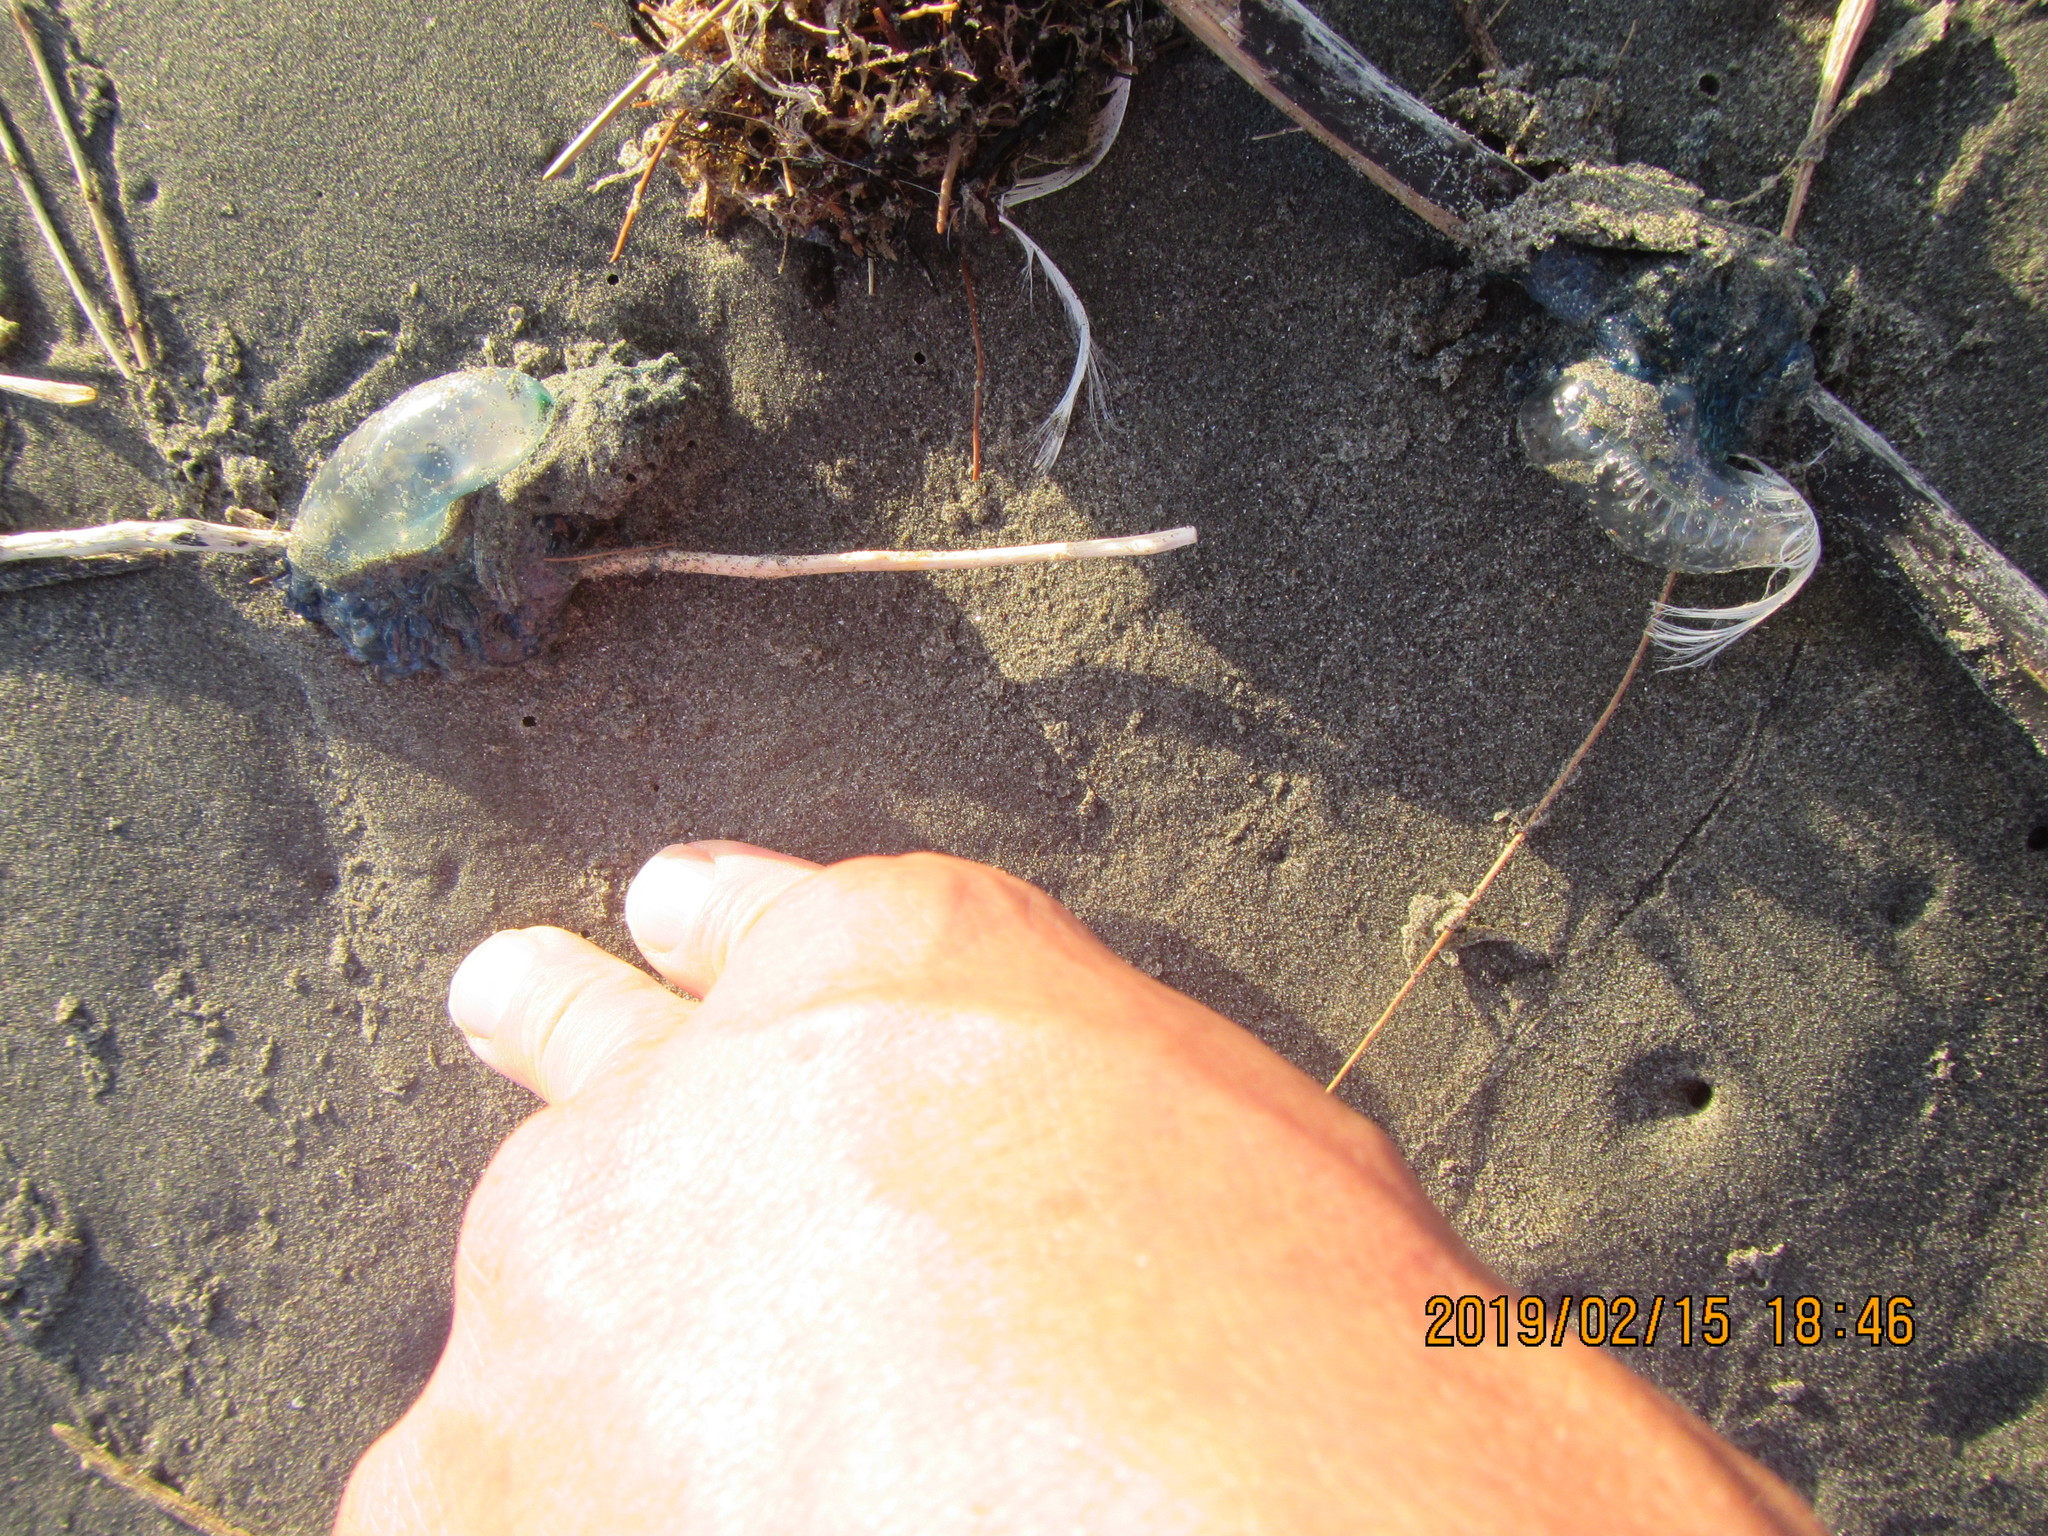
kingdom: Animalia
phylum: Cnidaria
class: Hydrozoa
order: Siphonophorae
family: Physaliidae
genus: Physalia
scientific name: Physalia physalis
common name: Portuguese man-of-war
